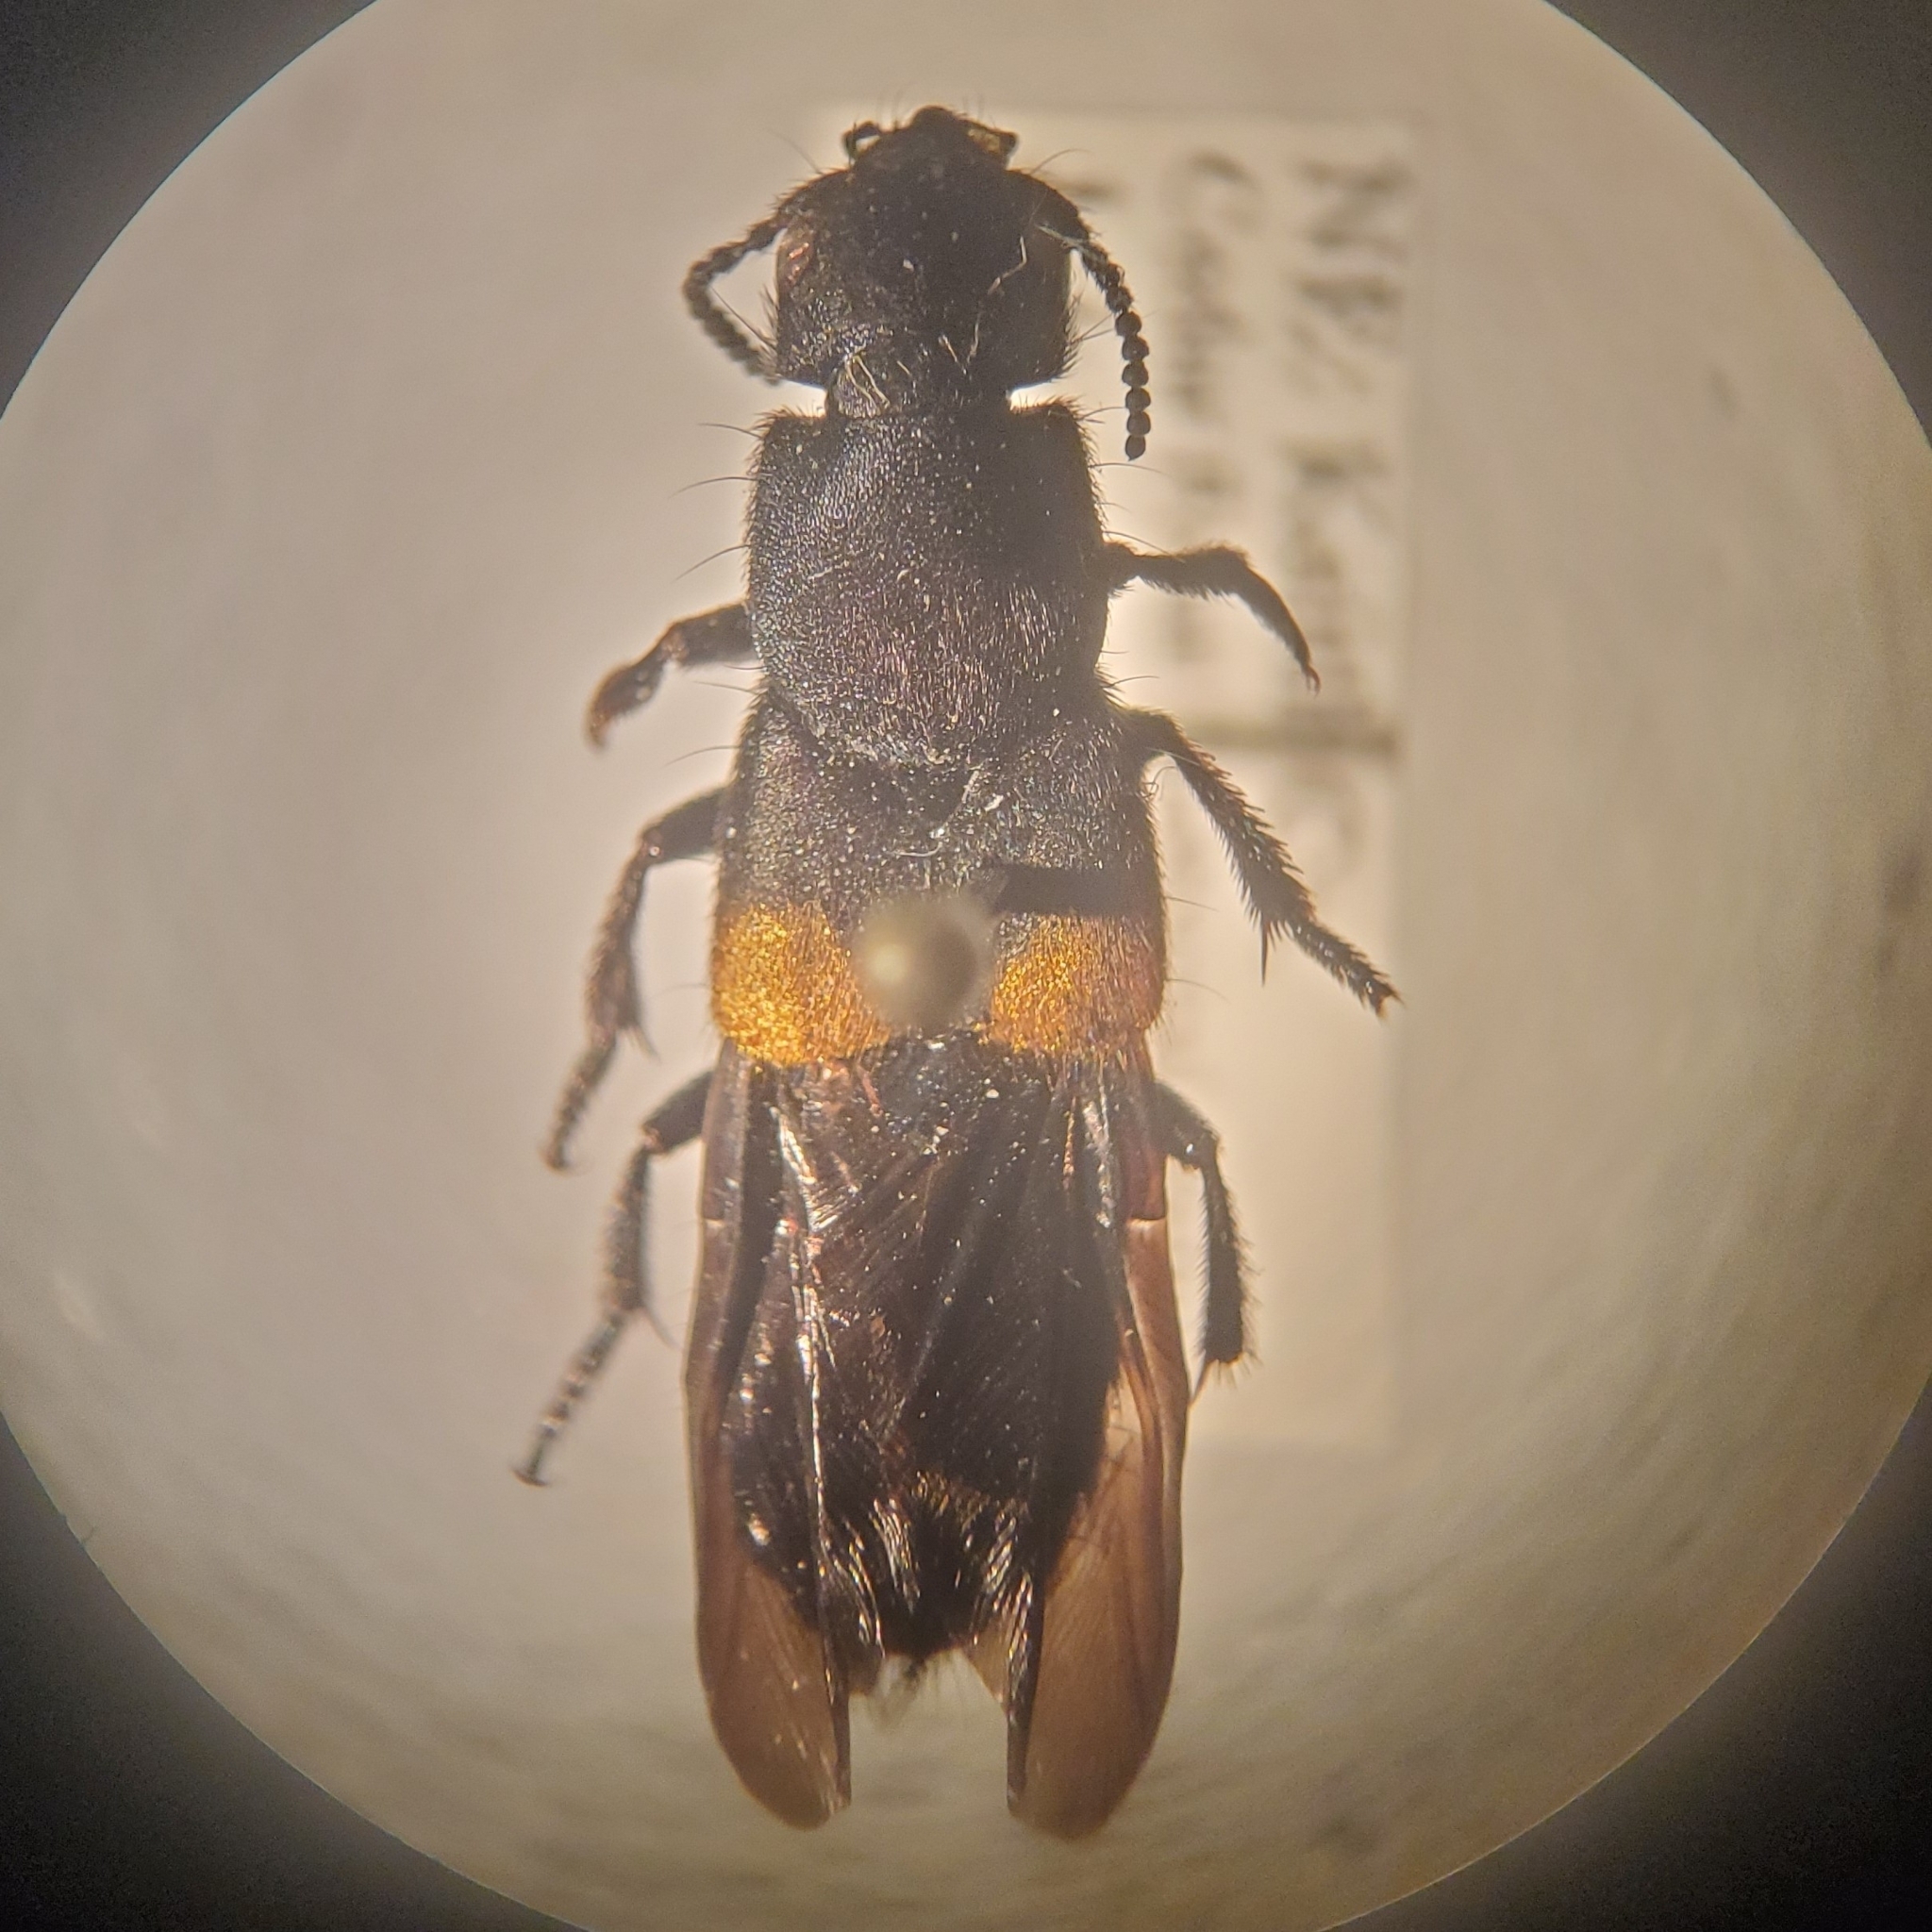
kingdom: Animalia
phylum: Arthropoda
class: Insecta
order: Coleoptera
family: Staphylinidae
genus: Platydracus
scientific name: Platydracus fossator
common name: Red-spotted rove beetle
